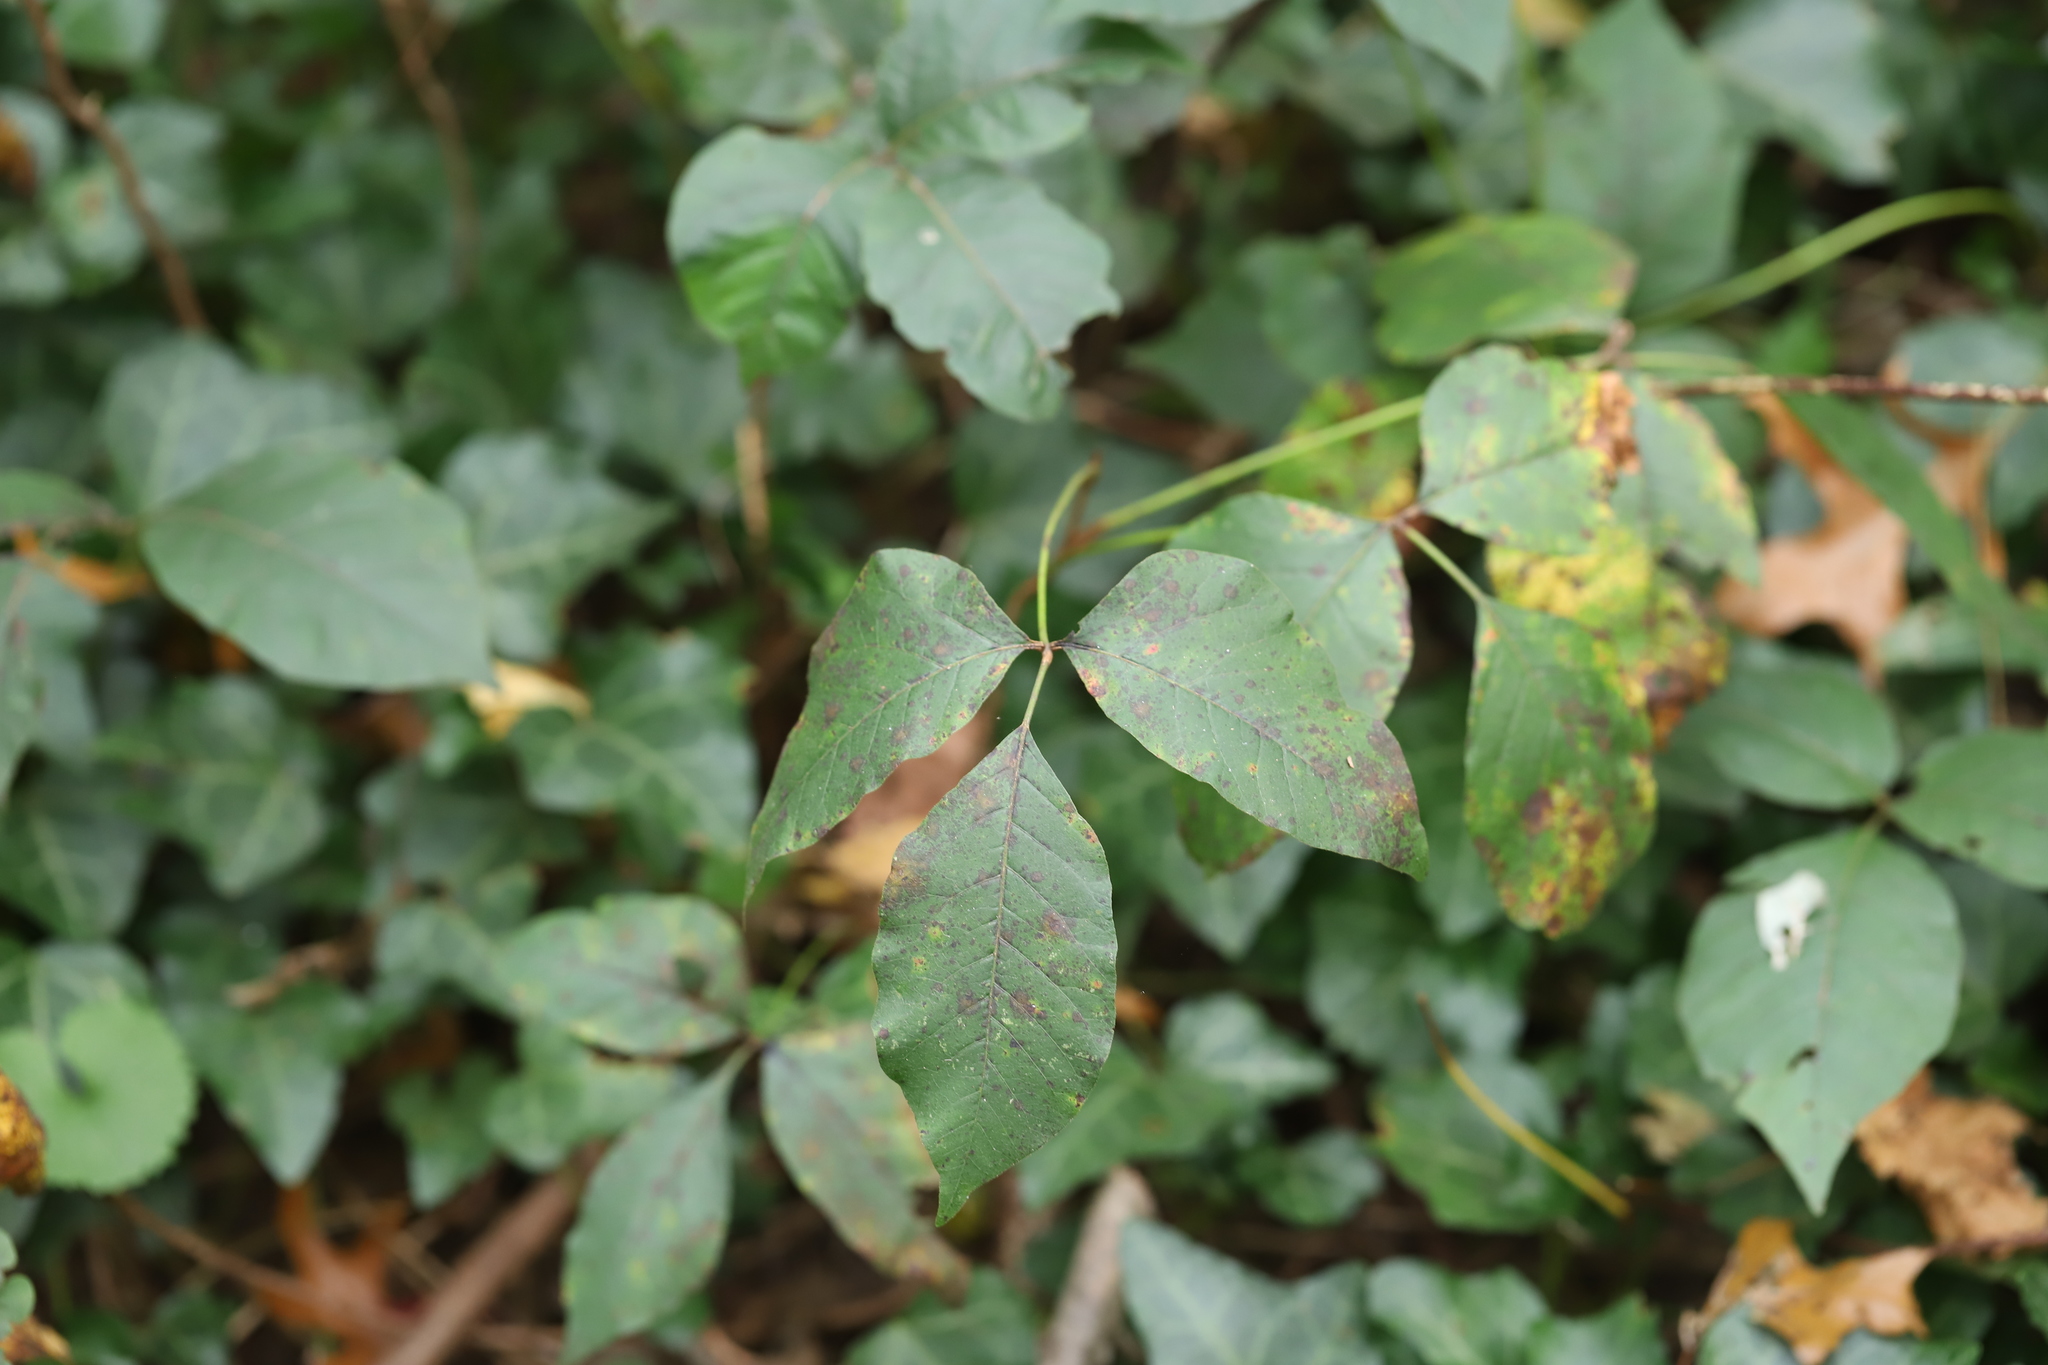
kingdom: Plantae
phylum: Tracheophyta
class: Magnoliopsida
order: Sapindales
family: Anacardiaceae
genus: Toxicodendron
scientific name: Toxicodendron radicans
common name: Poison ivy
